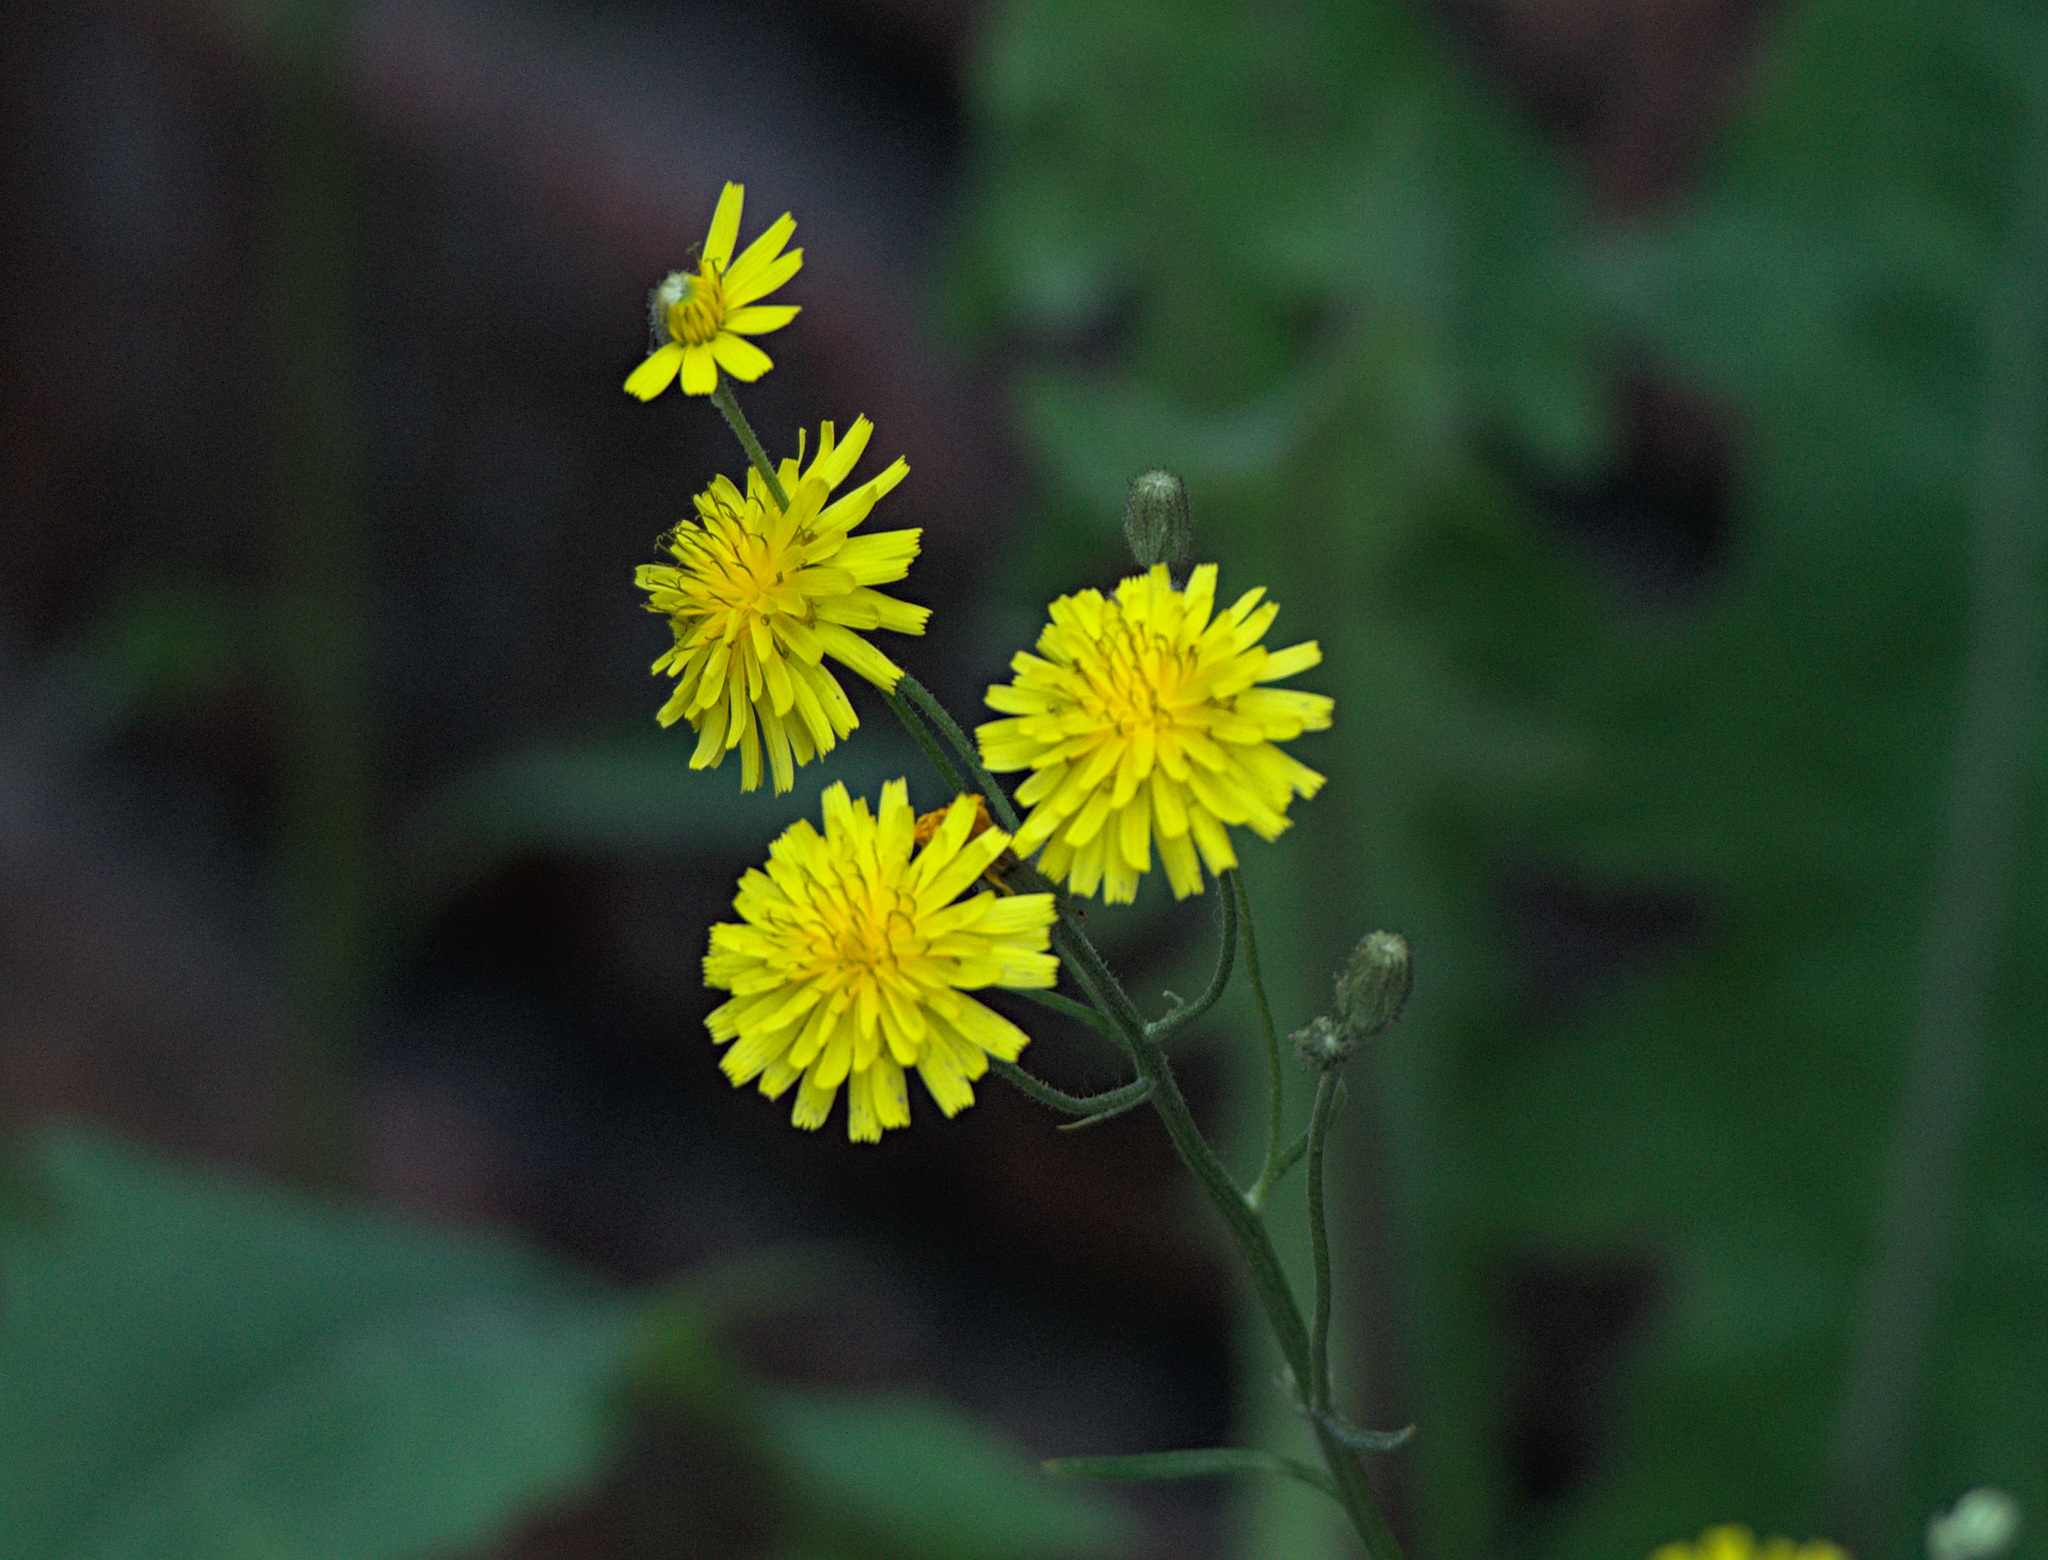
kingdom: Plantae
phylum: Tracheophyta
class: Magnoliopsida
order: Asterales
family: Asteraceae
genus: Crepis
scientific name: Crepis tectorum
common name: Narrow-leaved hawk's-beard
